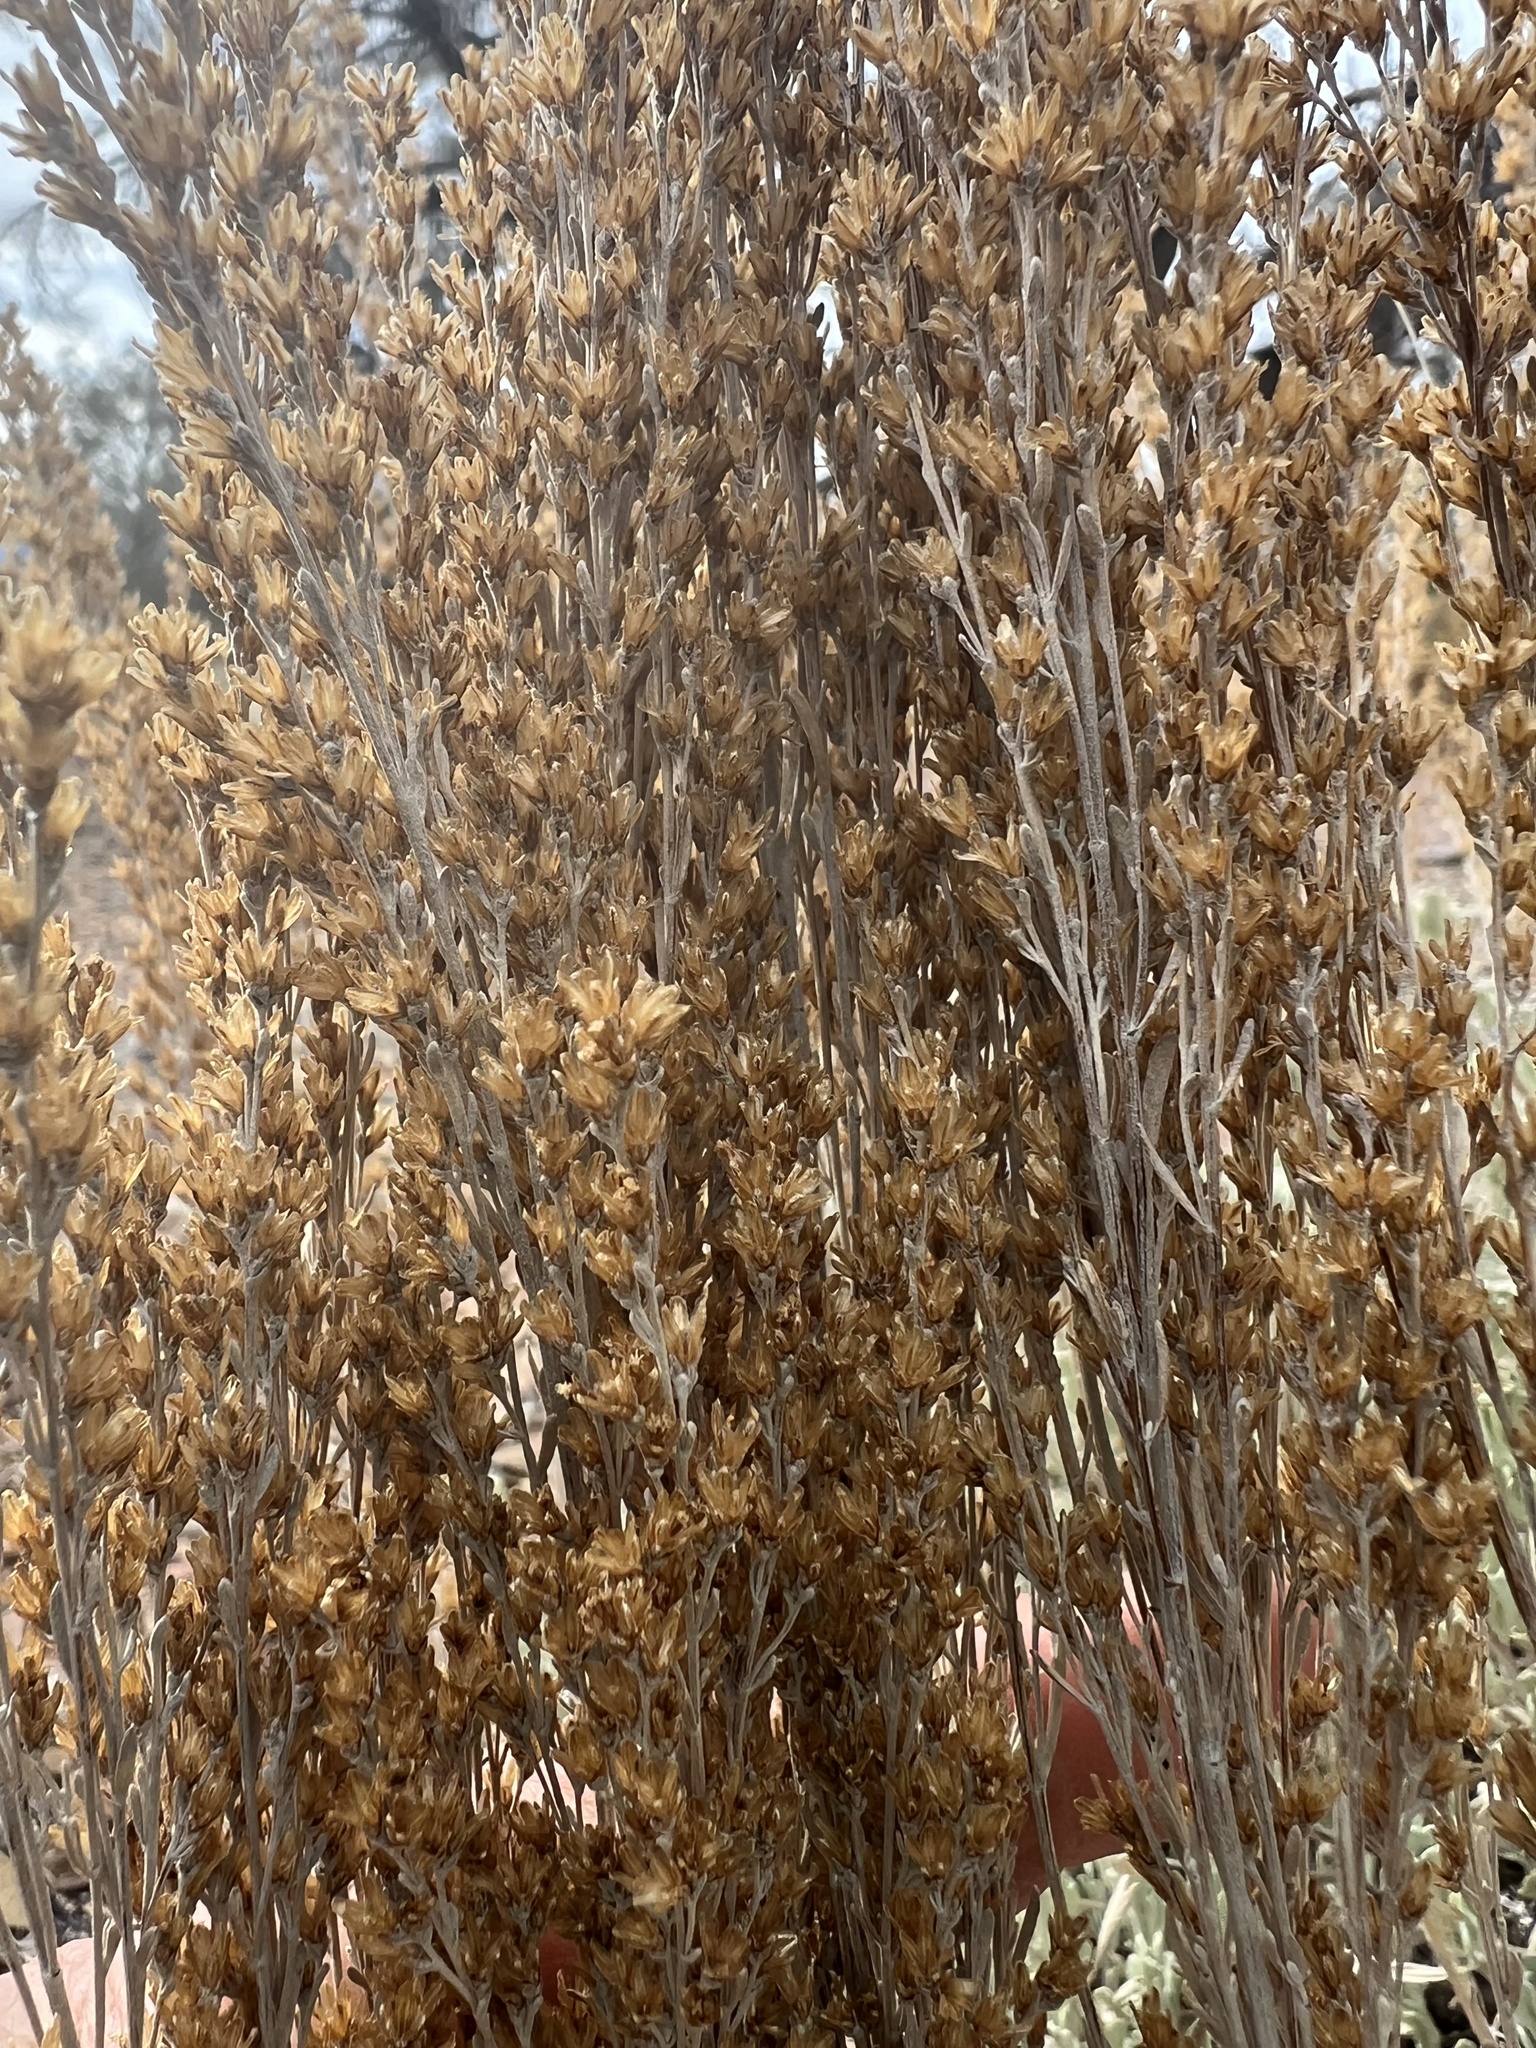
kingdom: Plantae
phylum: Tracheophyta
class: Magnoliopsida
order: Asterales
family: Asteraceae
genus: Artemisia
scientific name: Artemisia nova
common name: Black-sage
